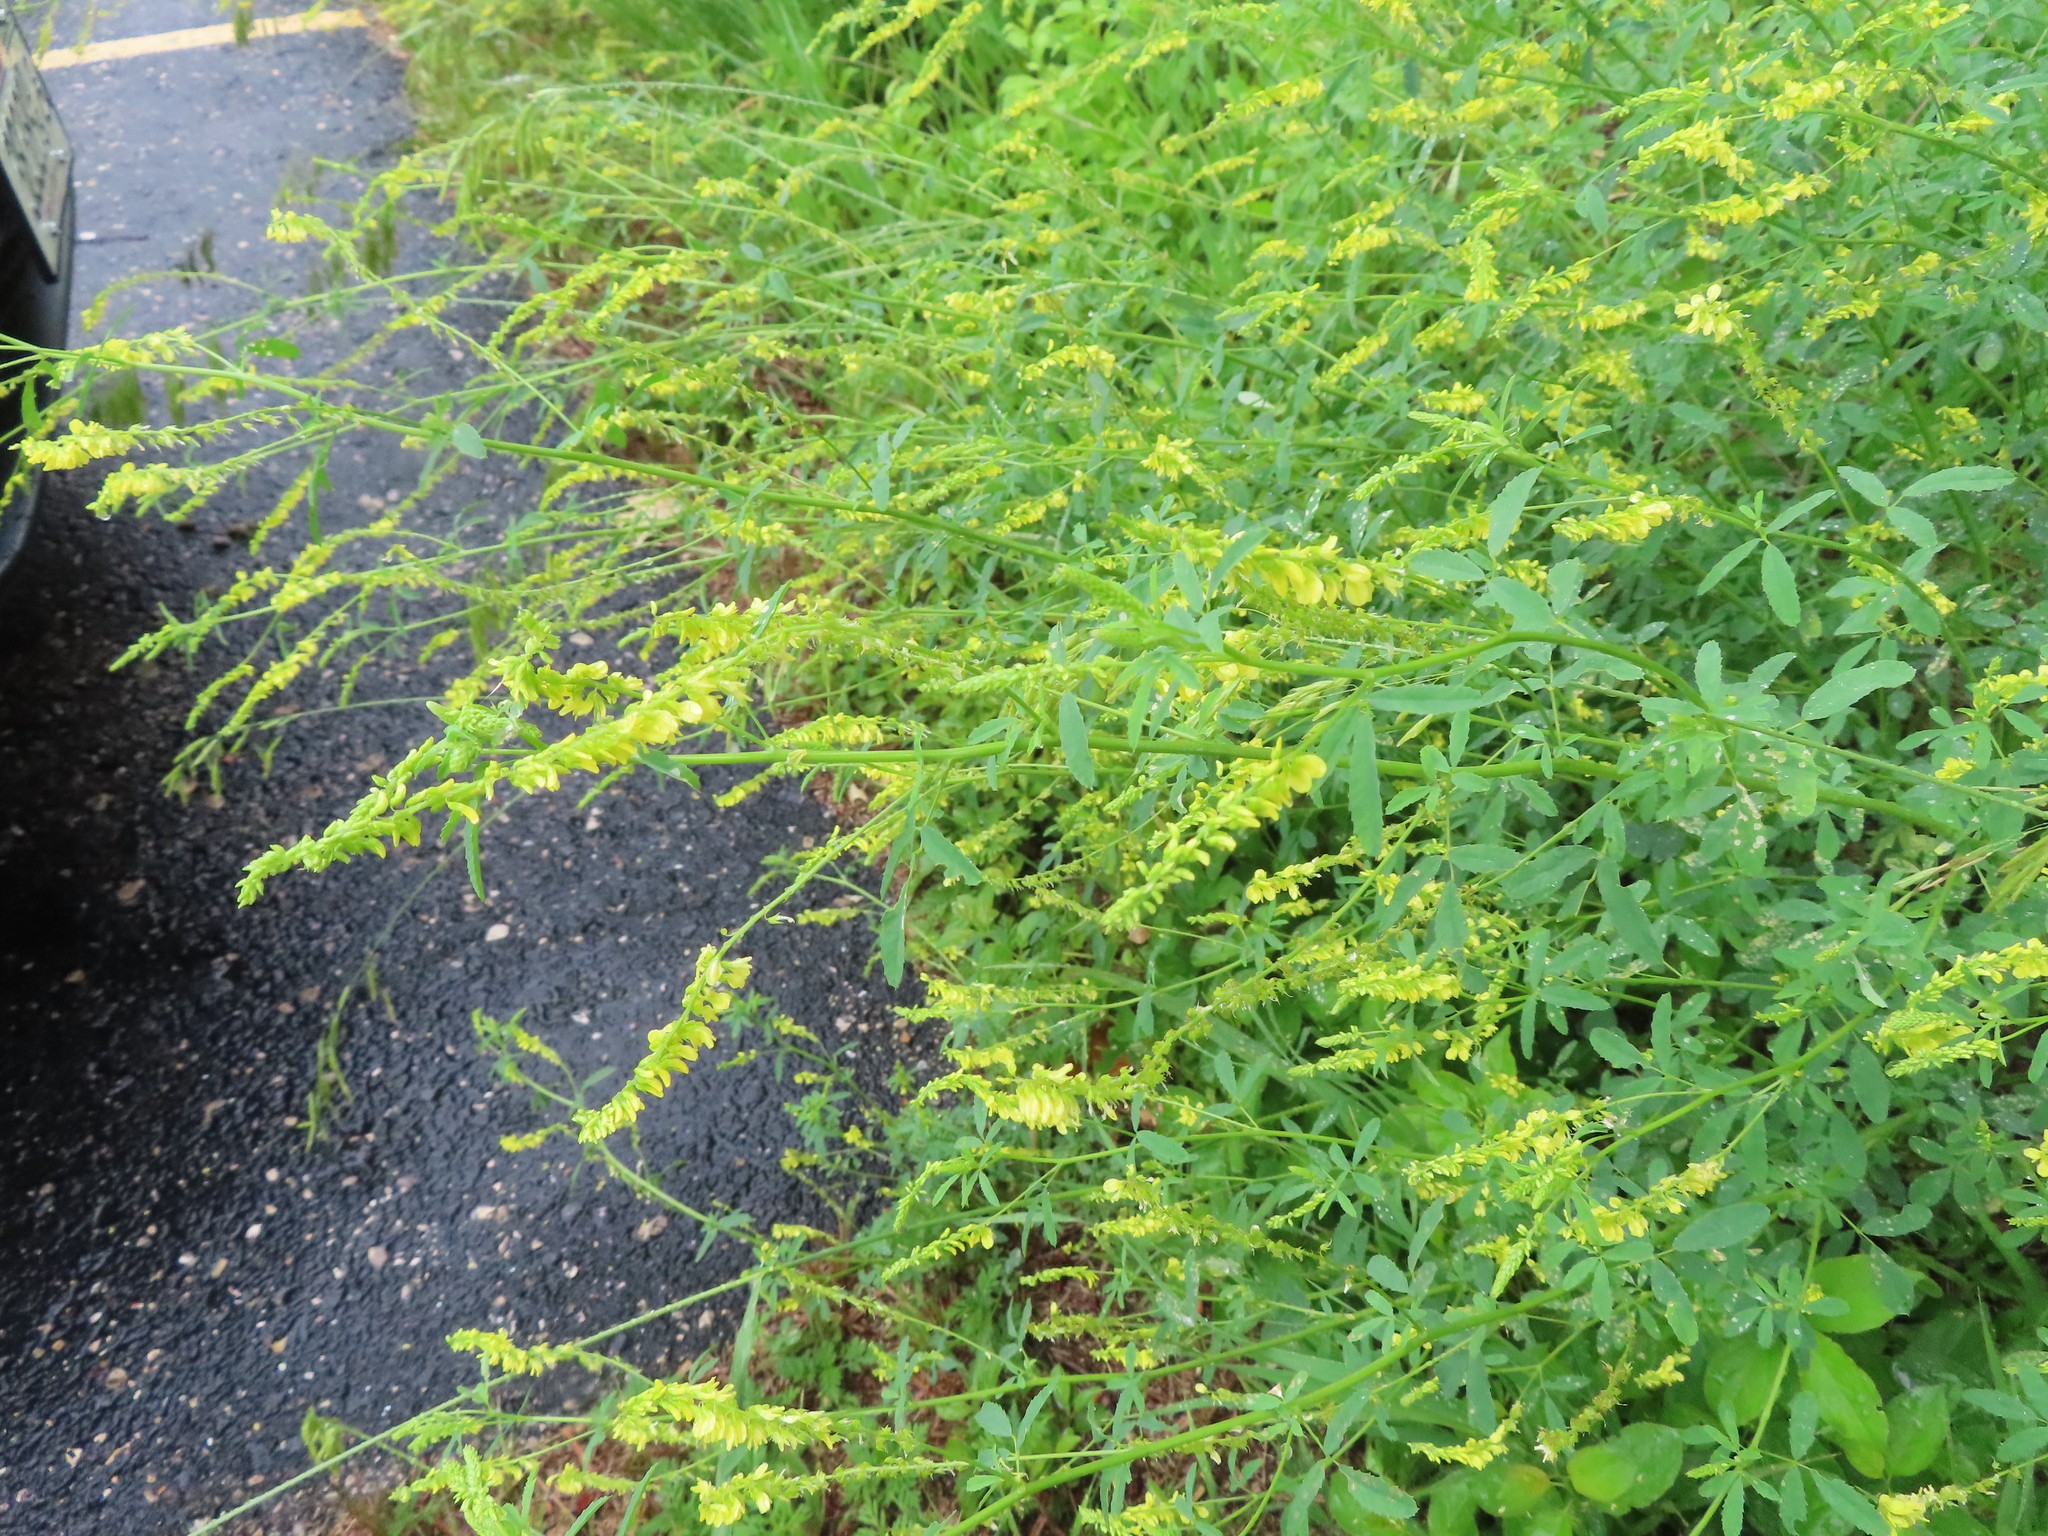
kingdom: Plantae
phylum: Tracheophyta
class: Magnoliopsida
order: Fabales
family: Fabaceae
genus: Melilotus
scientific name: Melilotus officinalis
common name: Sweetclover
